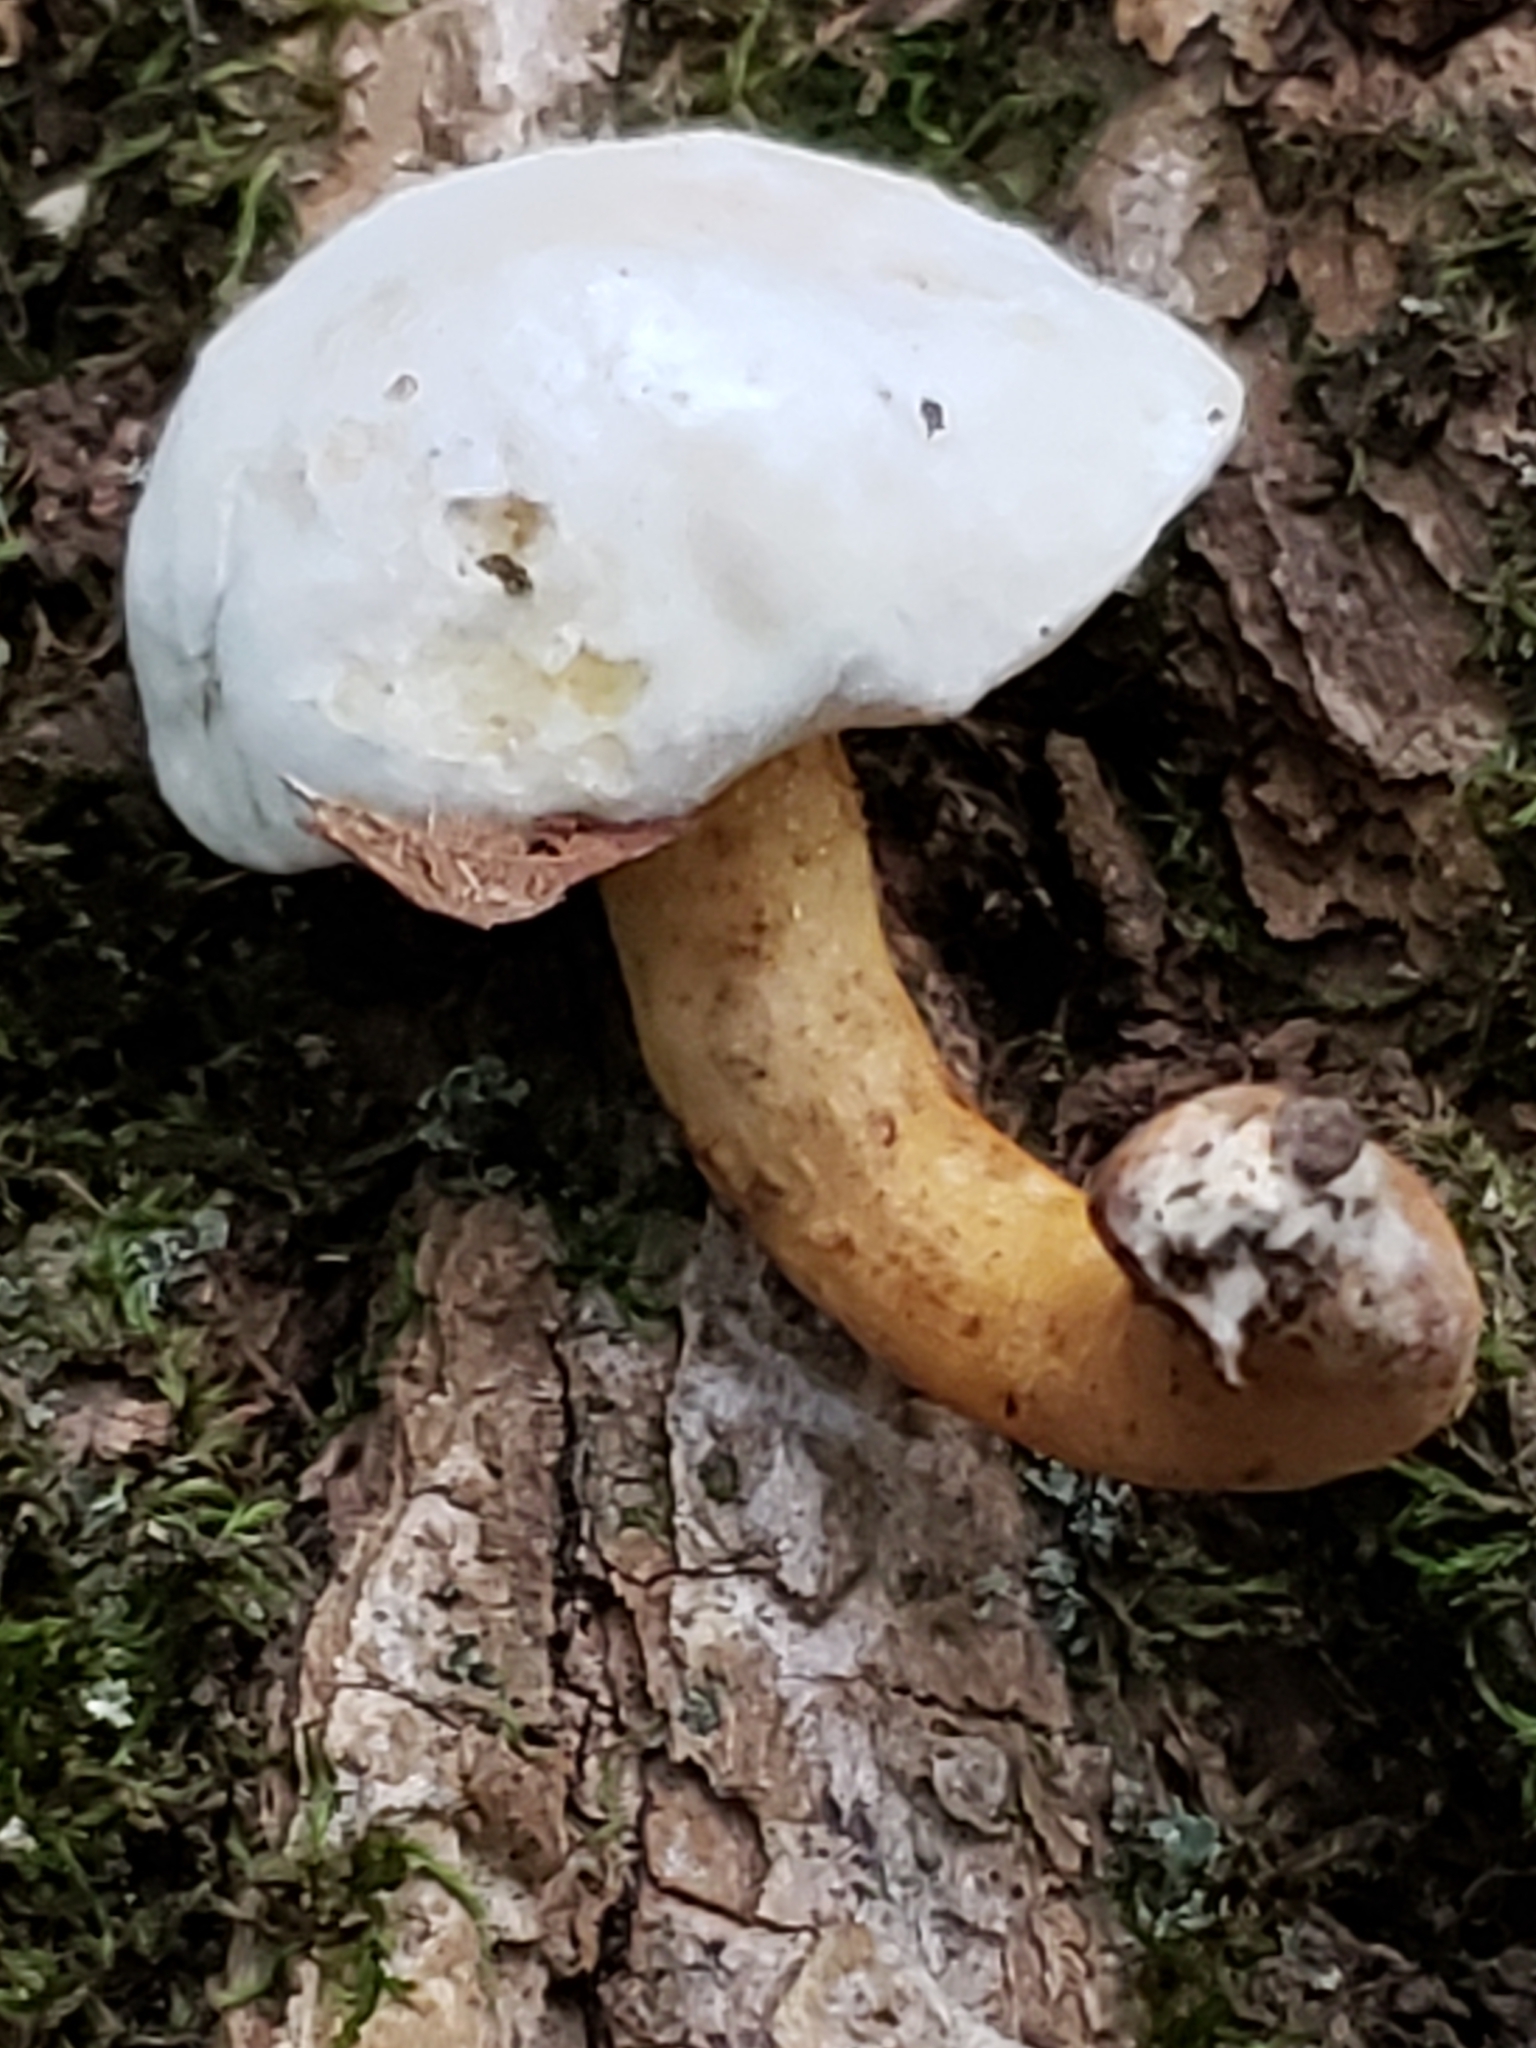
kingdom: Fungi
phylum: Ascomycota
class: Sordariomycetes
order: Hypocreales
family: Hypocreaceae
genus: Hypomyces
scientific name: Hypomyces chrysospermus
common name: Bolete mould
